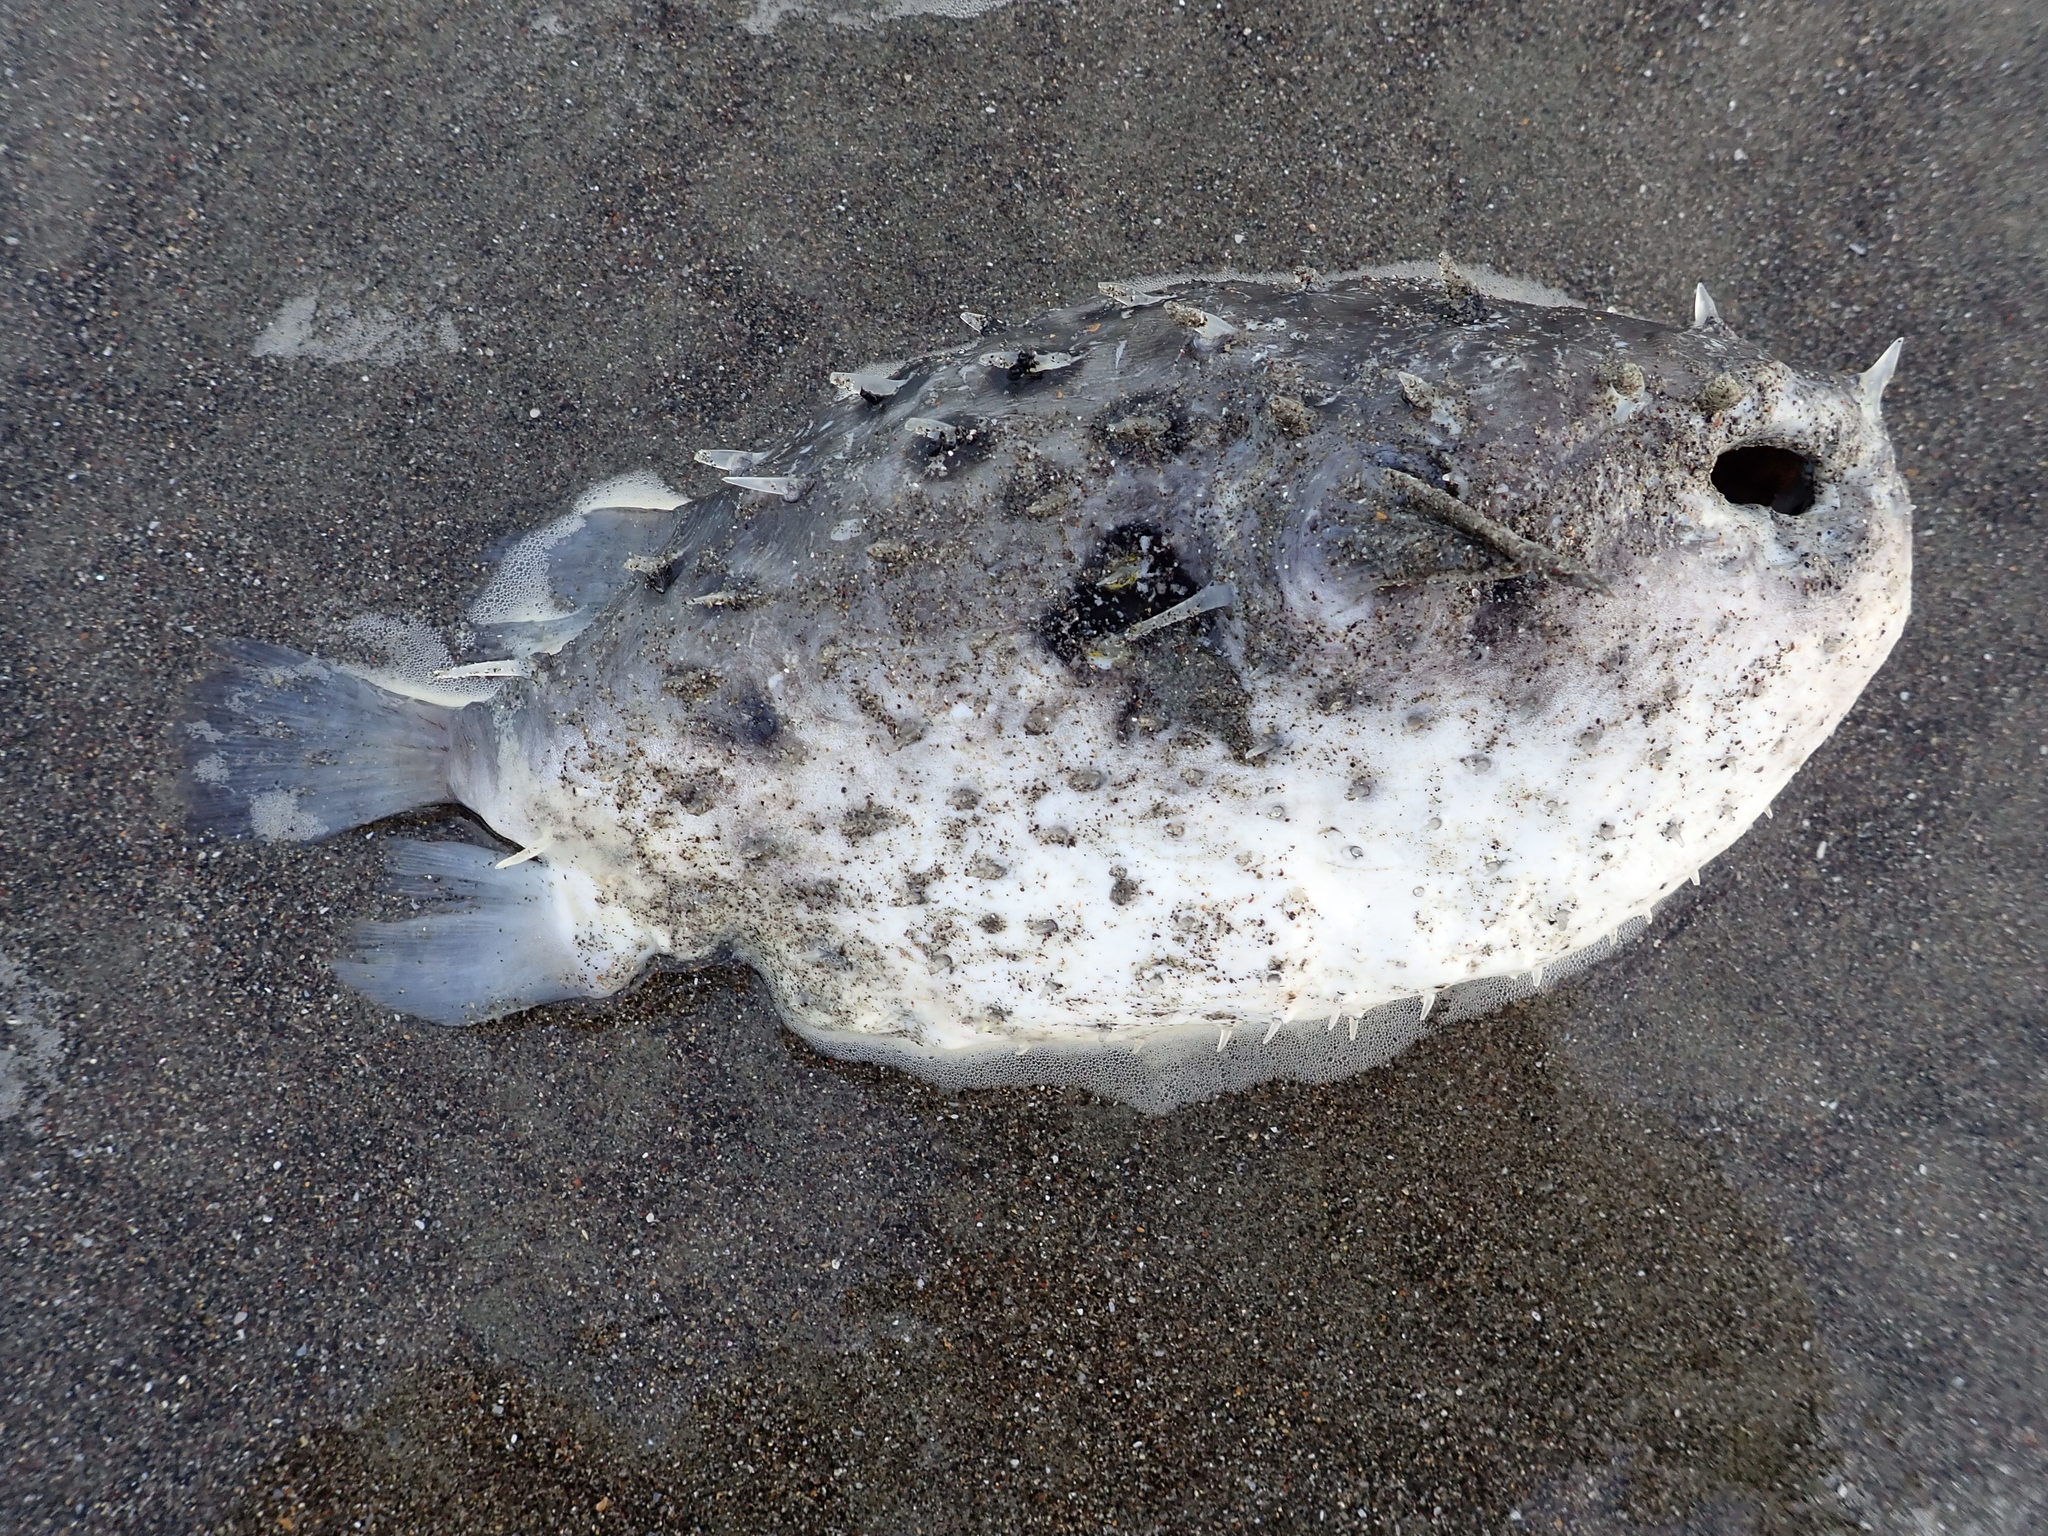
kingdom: Animalia
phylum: Chordata
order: Tetraodontiformes
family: Diodontidae
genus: Allomycterus
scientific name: Allomycterus pilatus
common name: No common name
